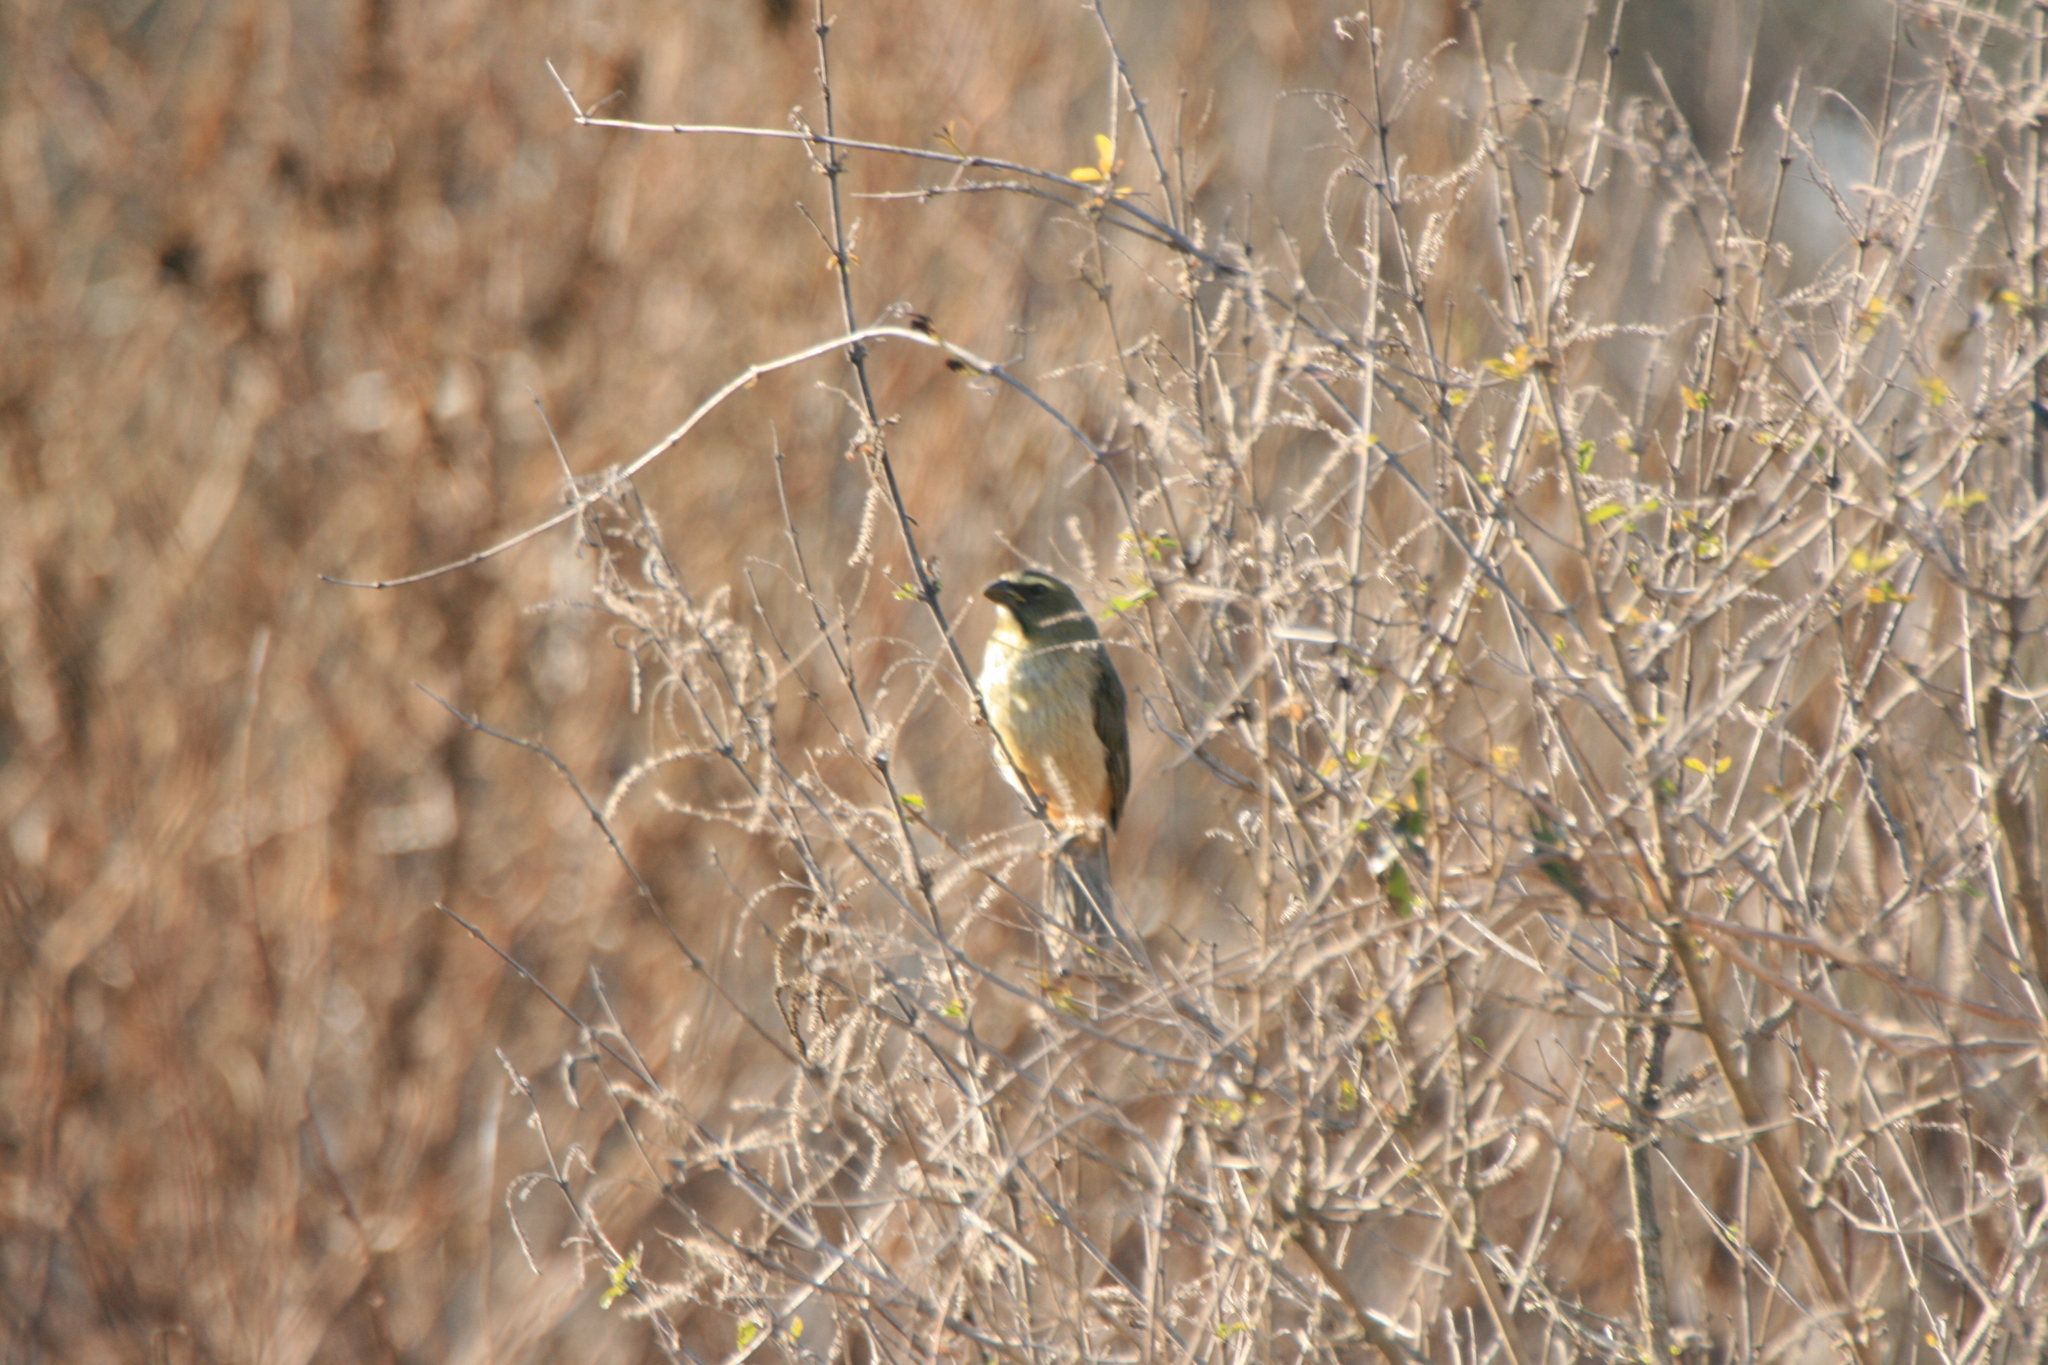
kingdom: Animalia
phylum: Chordata
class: Aves
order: Passeriformes
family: Thraupidae
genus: Saltator
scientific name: Saltator coerulescens
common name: Grayish saltator
